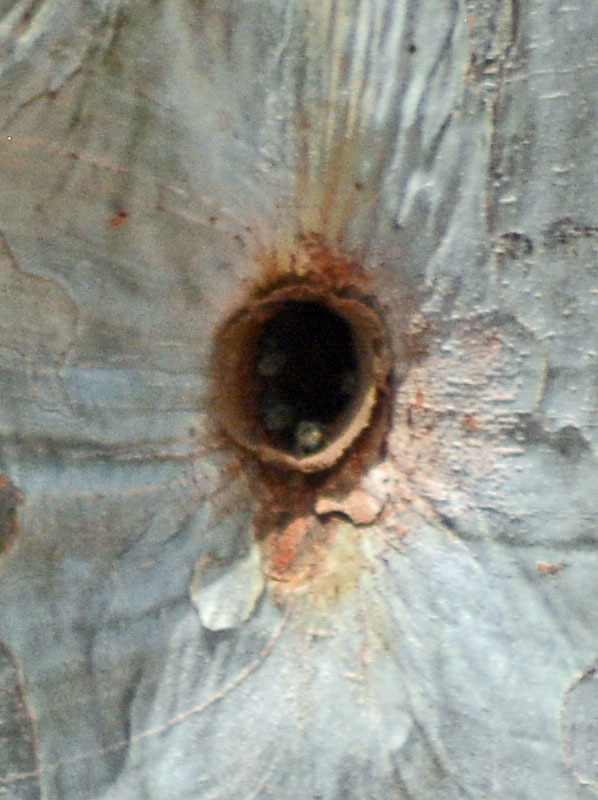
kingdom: Animalia
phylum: Arthropoda
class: Insecta
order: Hymenoptera
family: Apidae
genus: Nannotrigona
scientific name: Nannotrigona perilampoides
